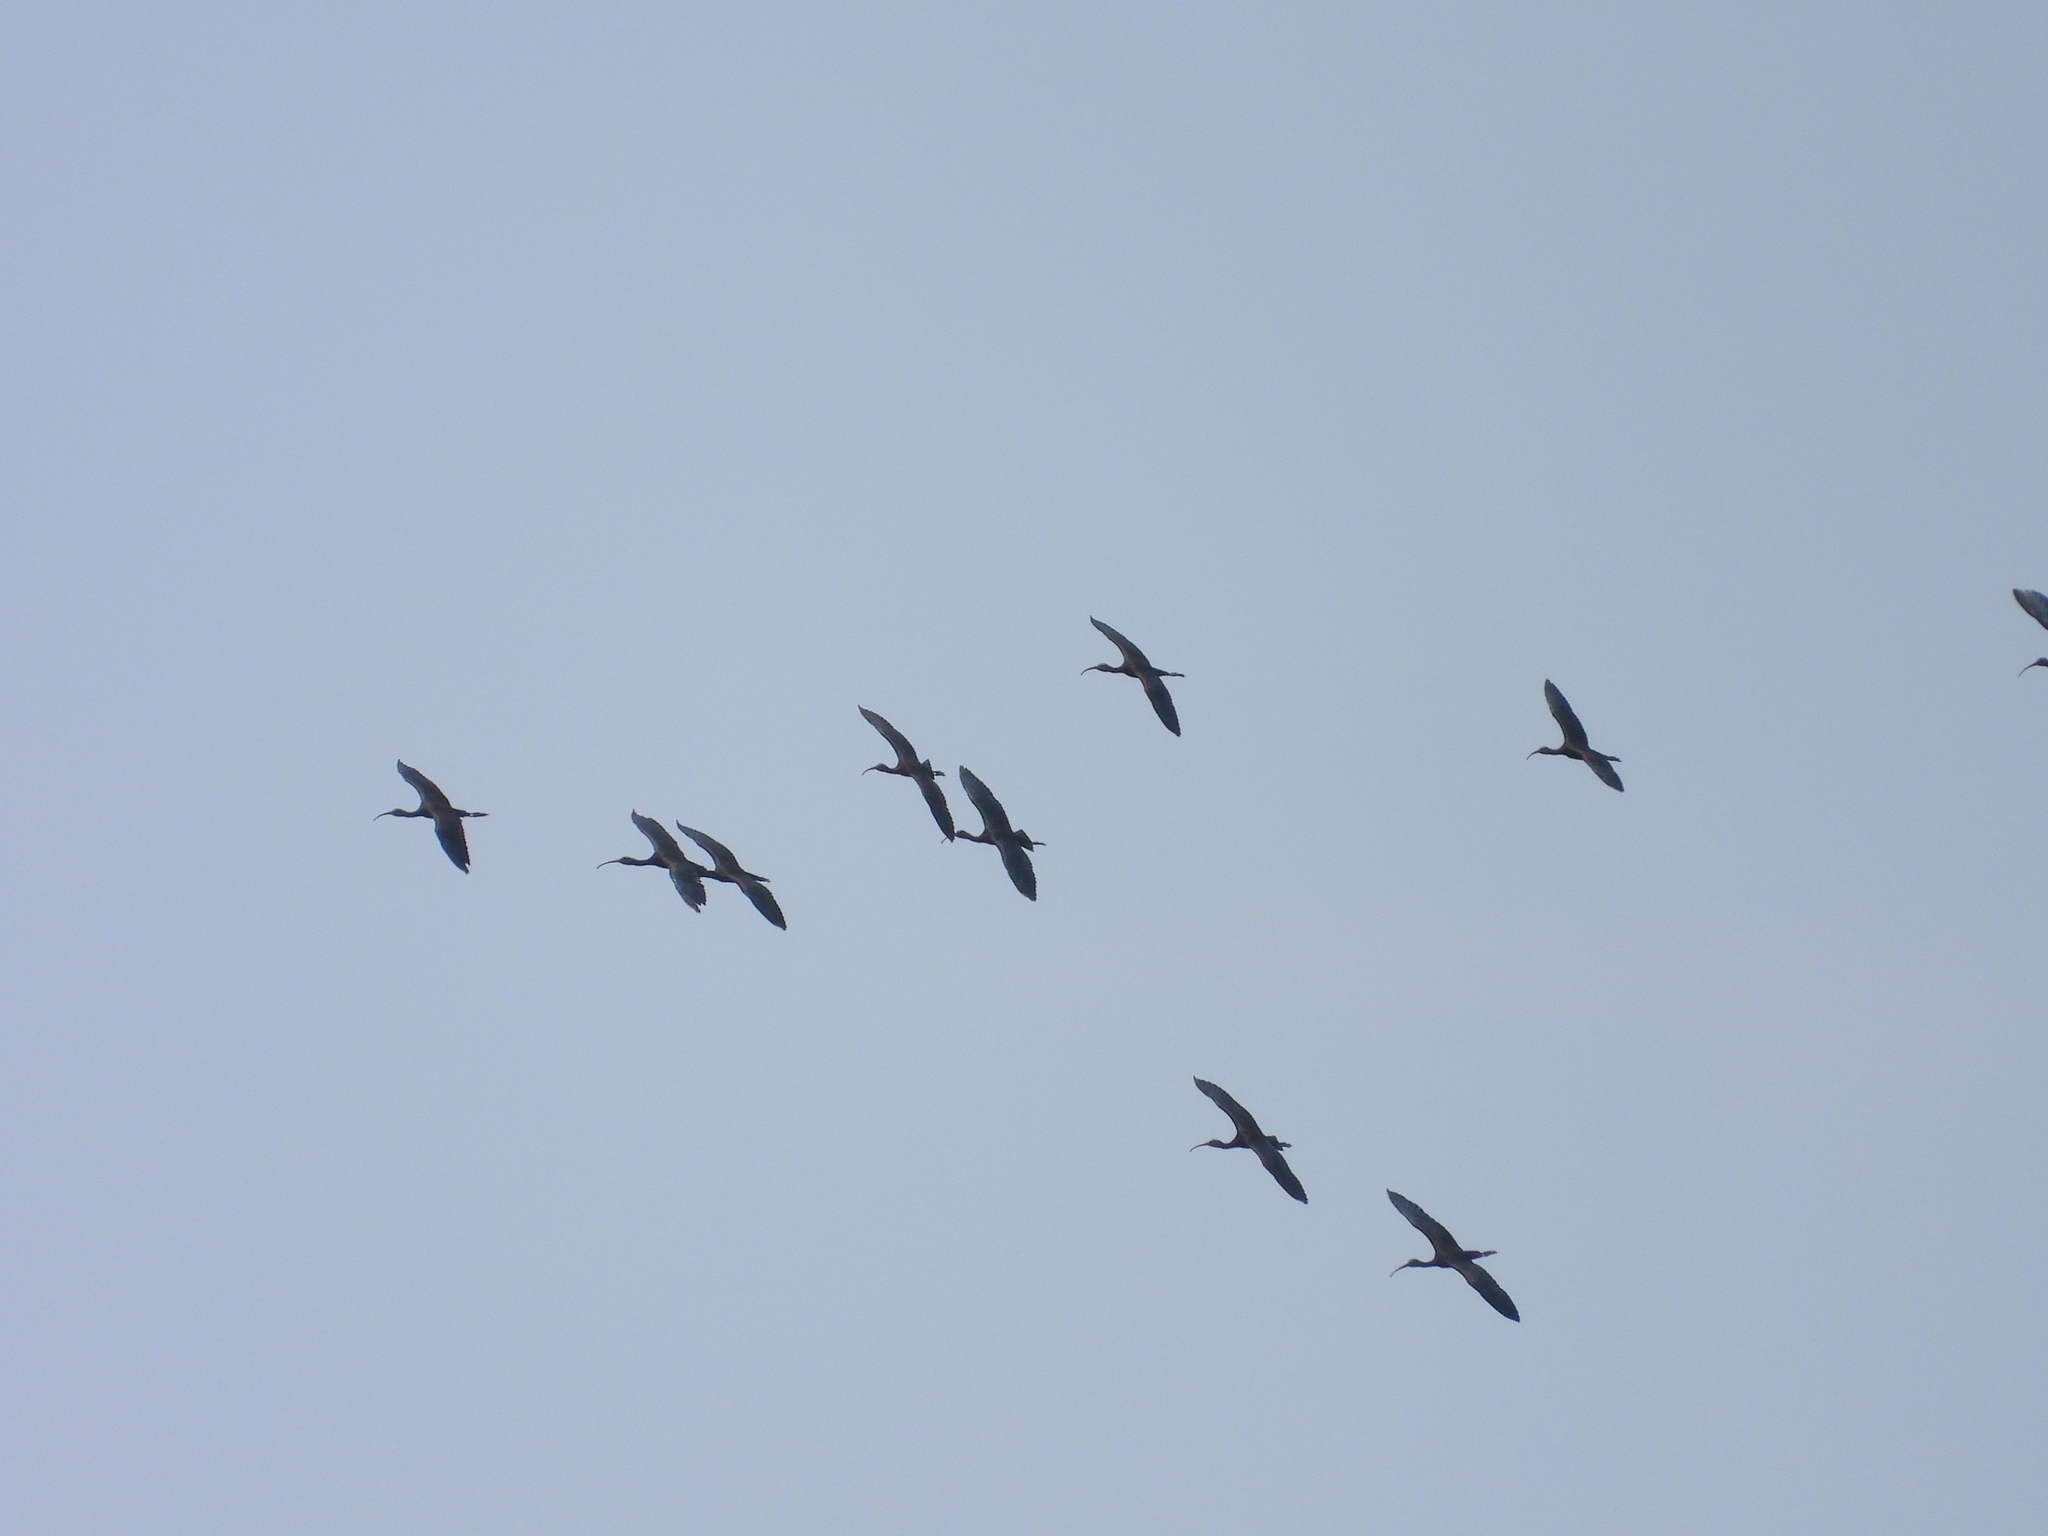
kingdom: Animalia
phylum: Chordata
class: Aves
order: Pelecaniformes
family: Threskiornithidae
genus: Plegadis
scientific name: Plegadis falcinellus
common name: Glossy ibis
